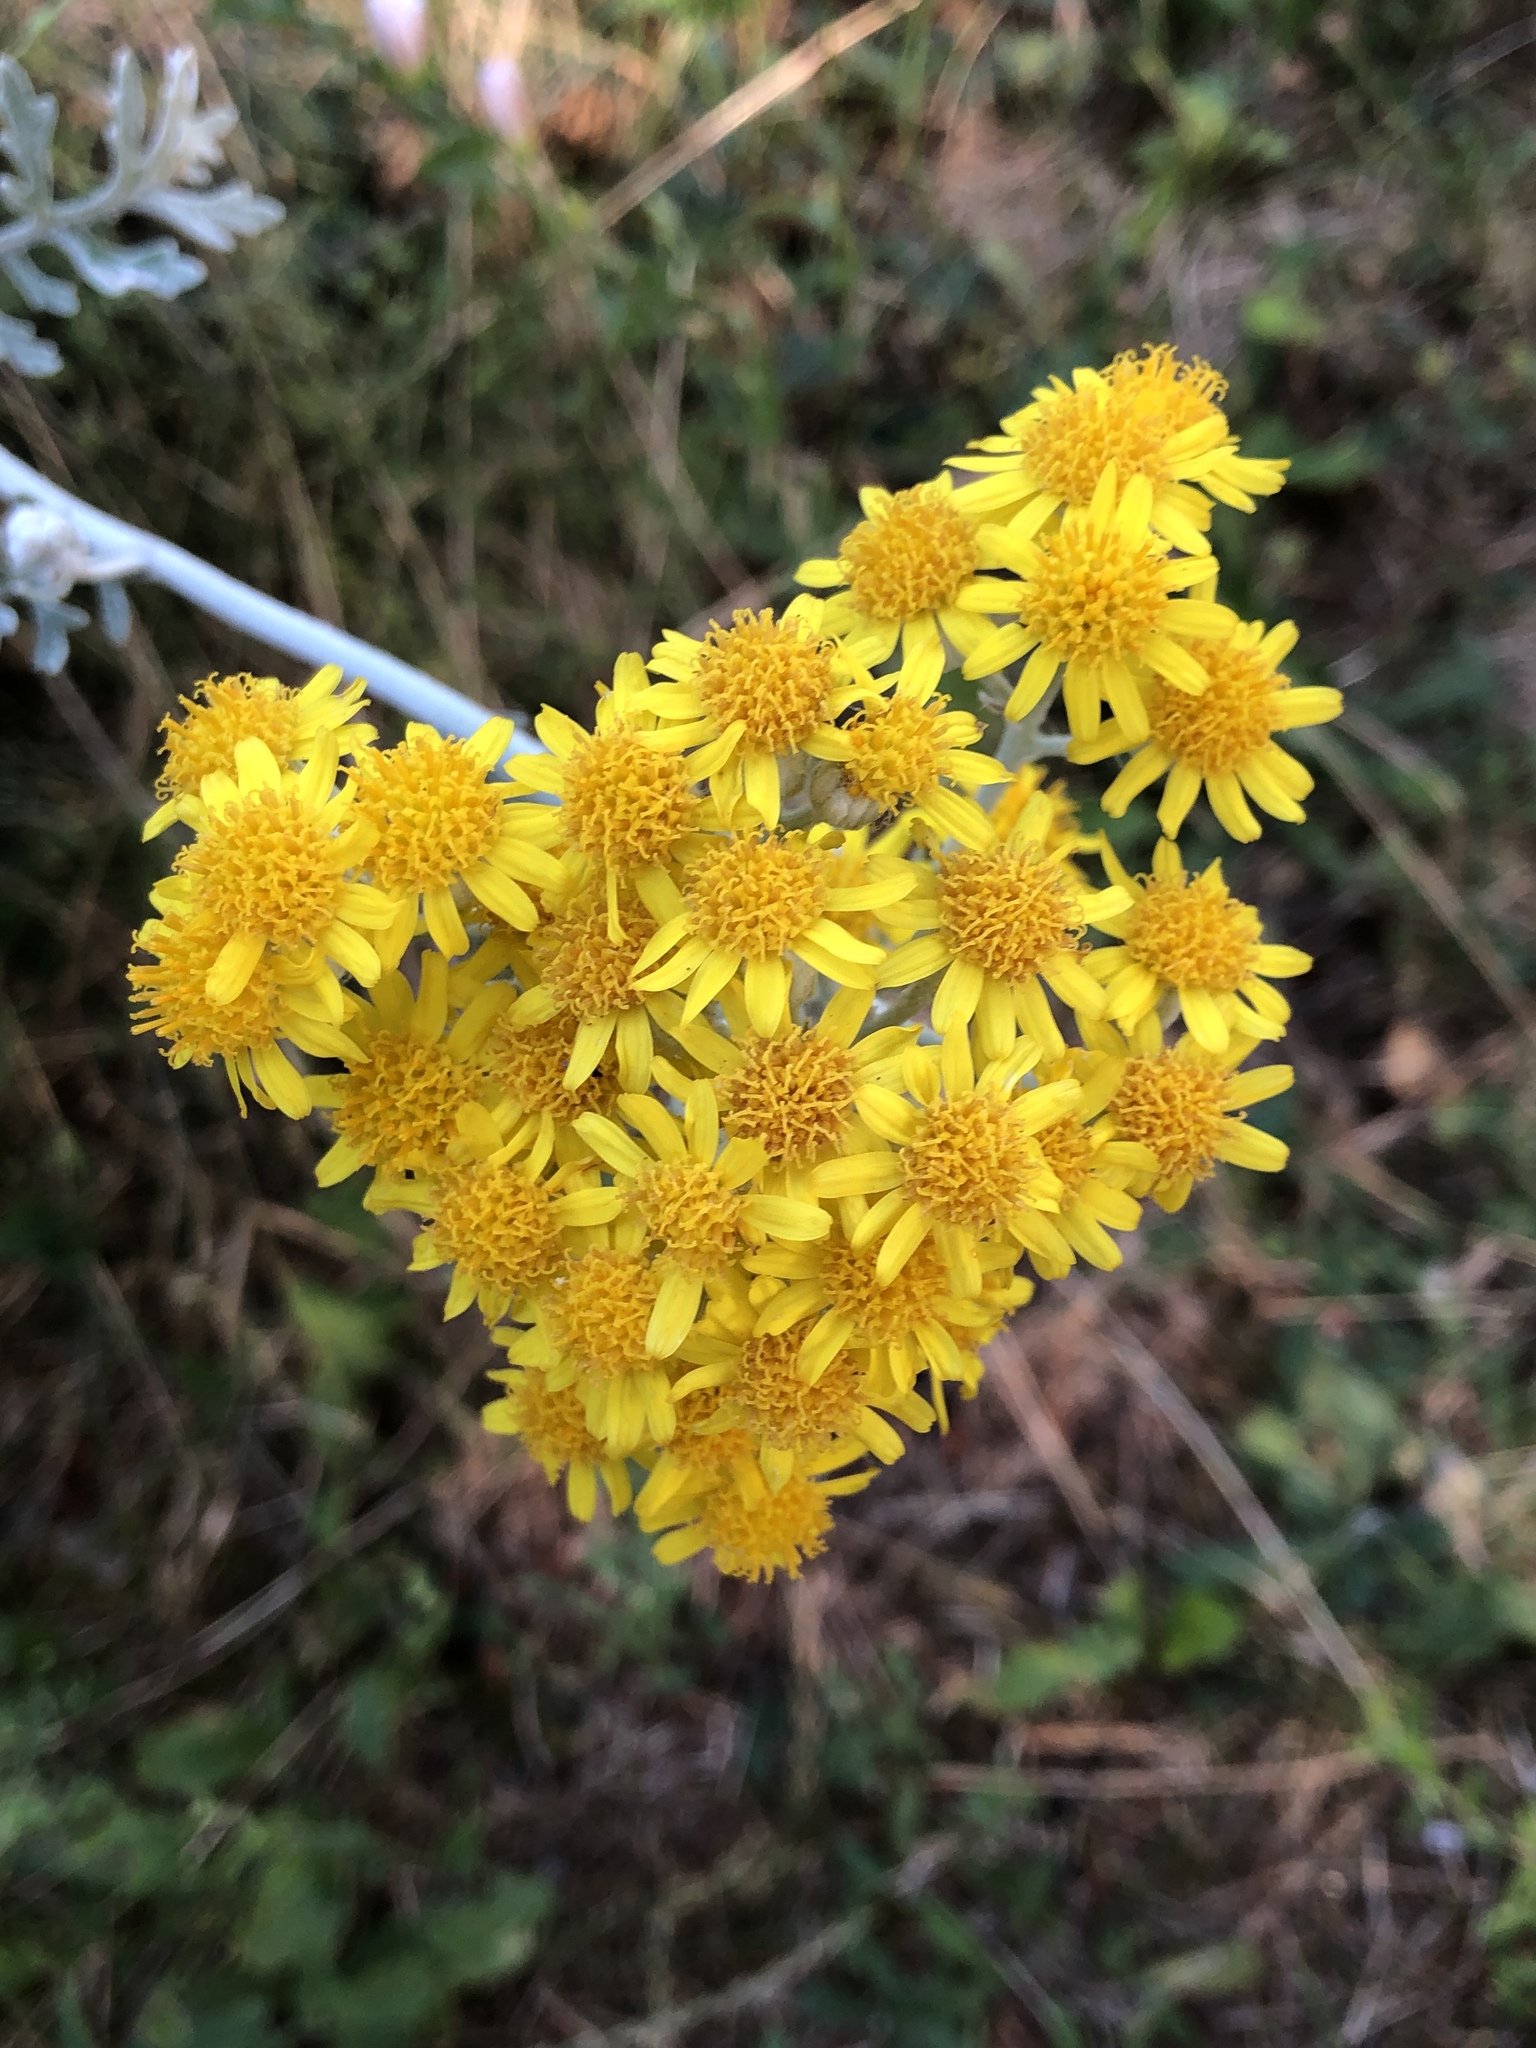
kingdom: Plantae
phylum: Tracheophyta
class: Magnoliopsida
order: Asterales
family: Asteraceae
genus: Jacobaea
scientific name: Jacobaea maritima
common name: Silver ragwort
